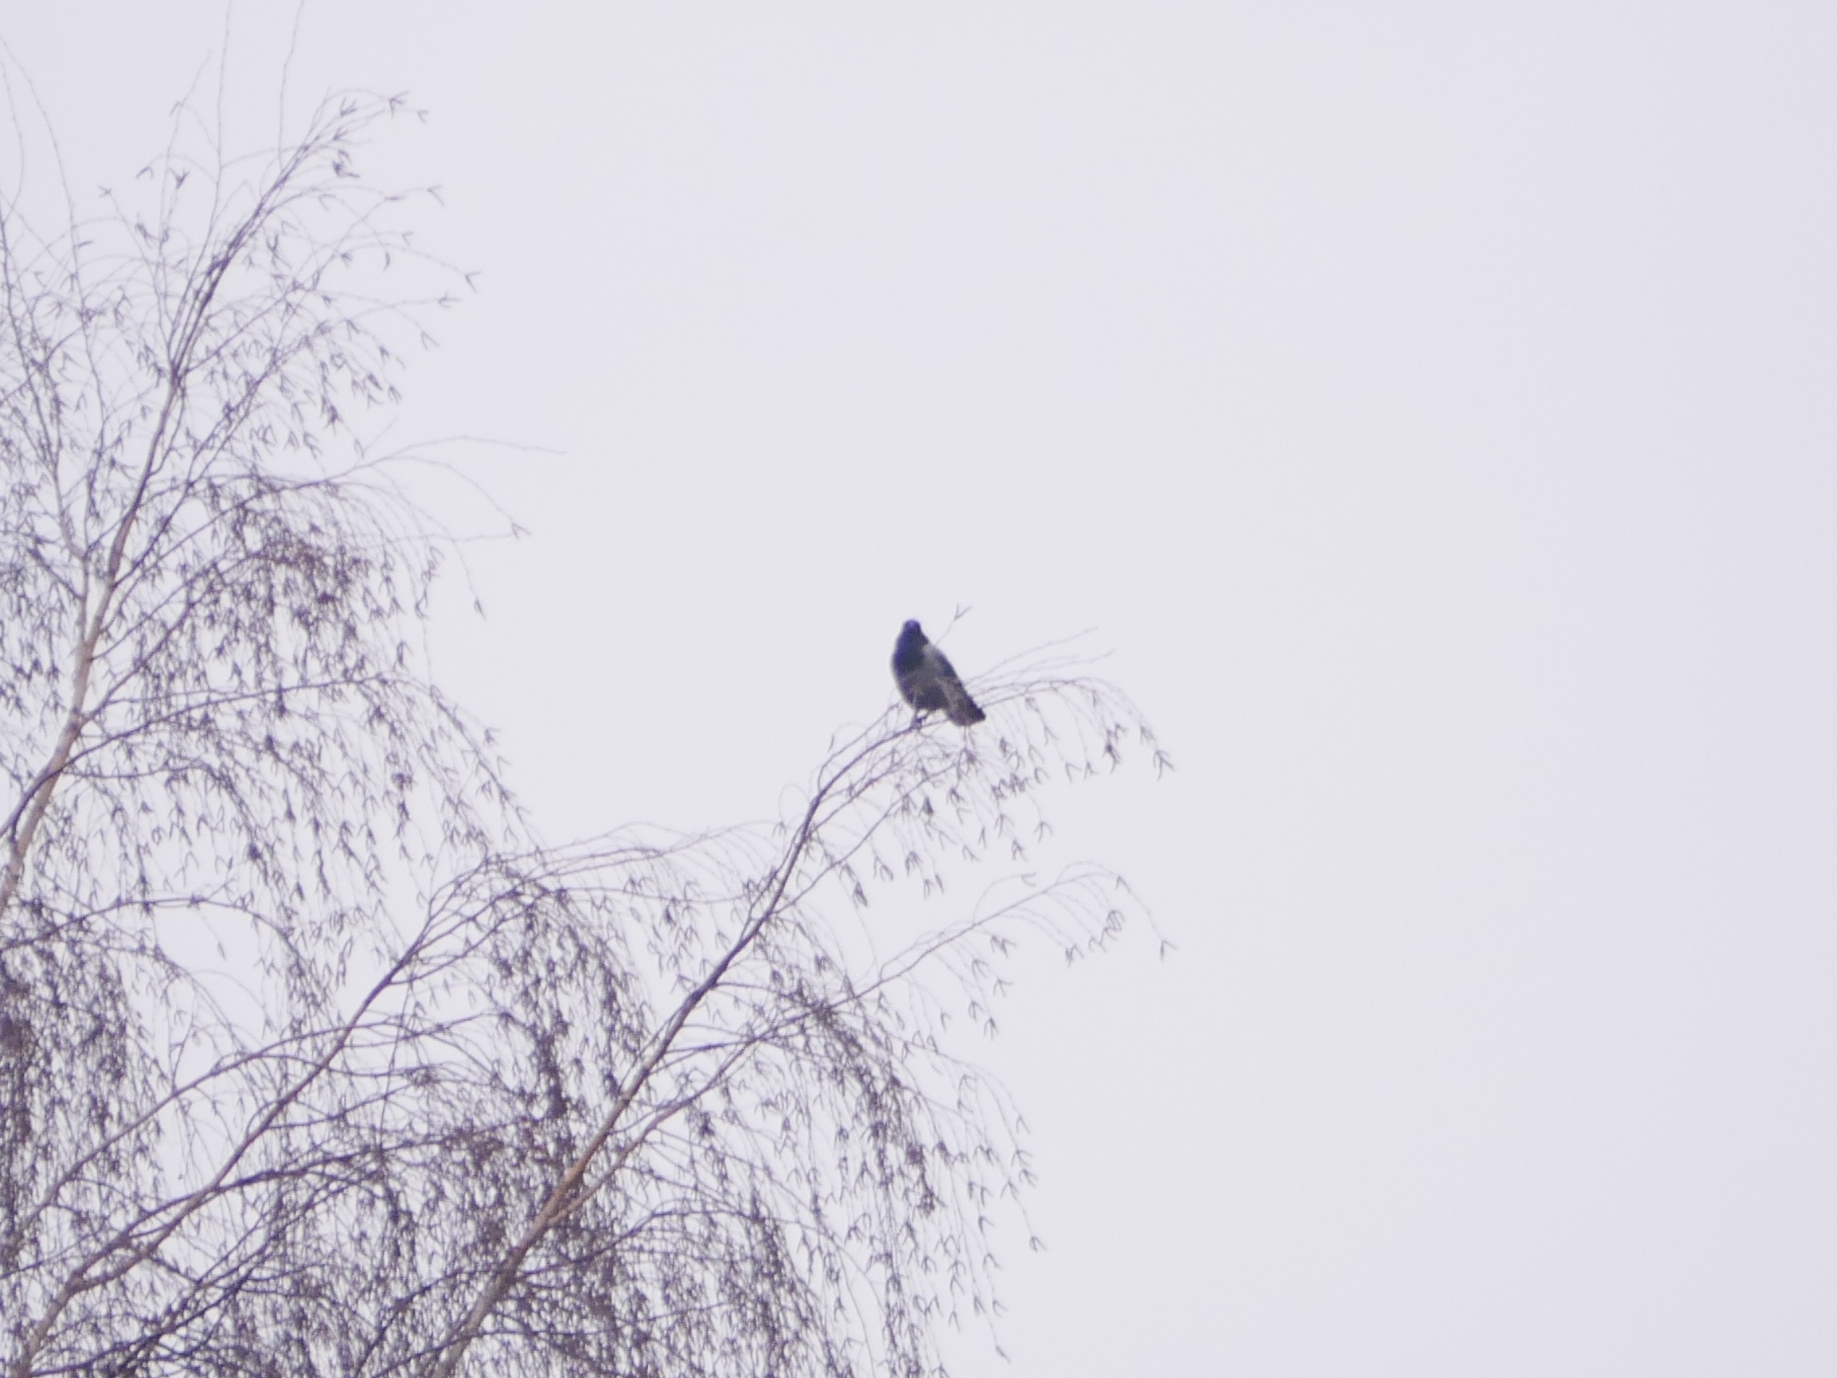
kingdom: Animalia
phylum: Chordata
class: Aves
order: Passeriformes
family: Corvidae
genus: Corvus
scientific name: Corvus cornix
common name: Hooded crow
